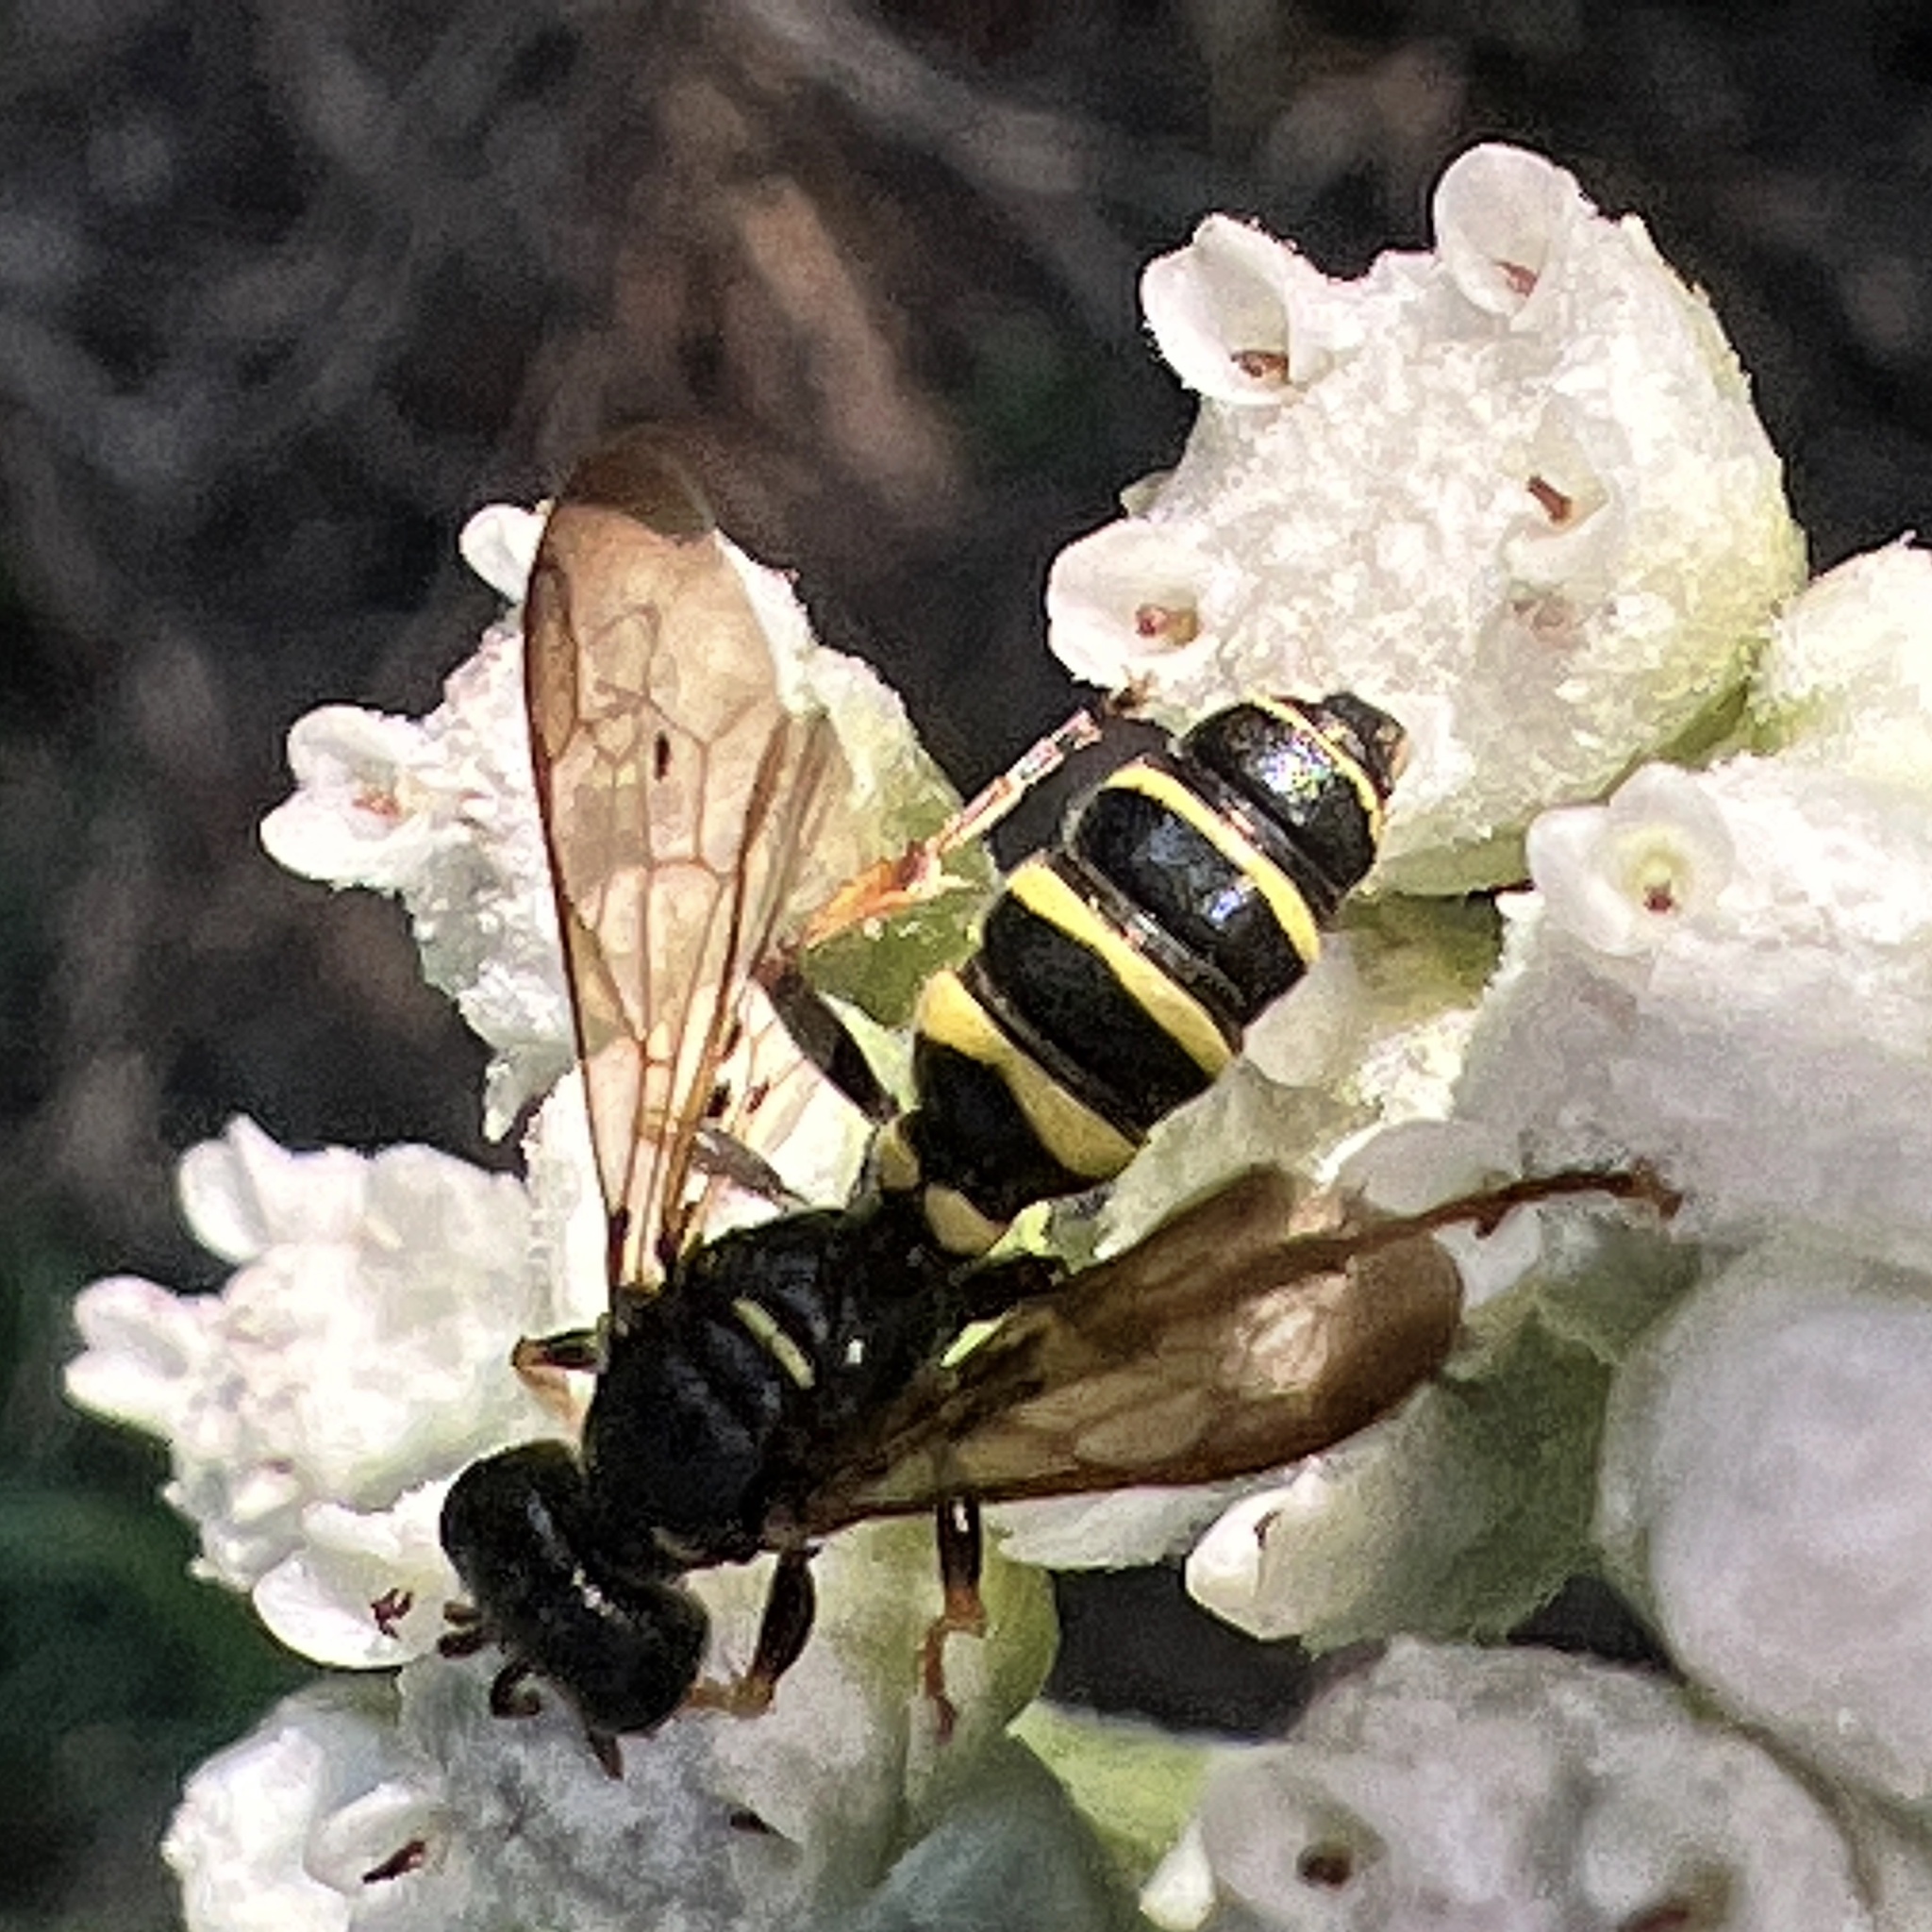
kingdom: Animalia
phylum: Arthropoda
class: Insecta
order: Hymenoptera
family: Crabronidae
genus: Cerceris
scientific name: Cerceris halone
